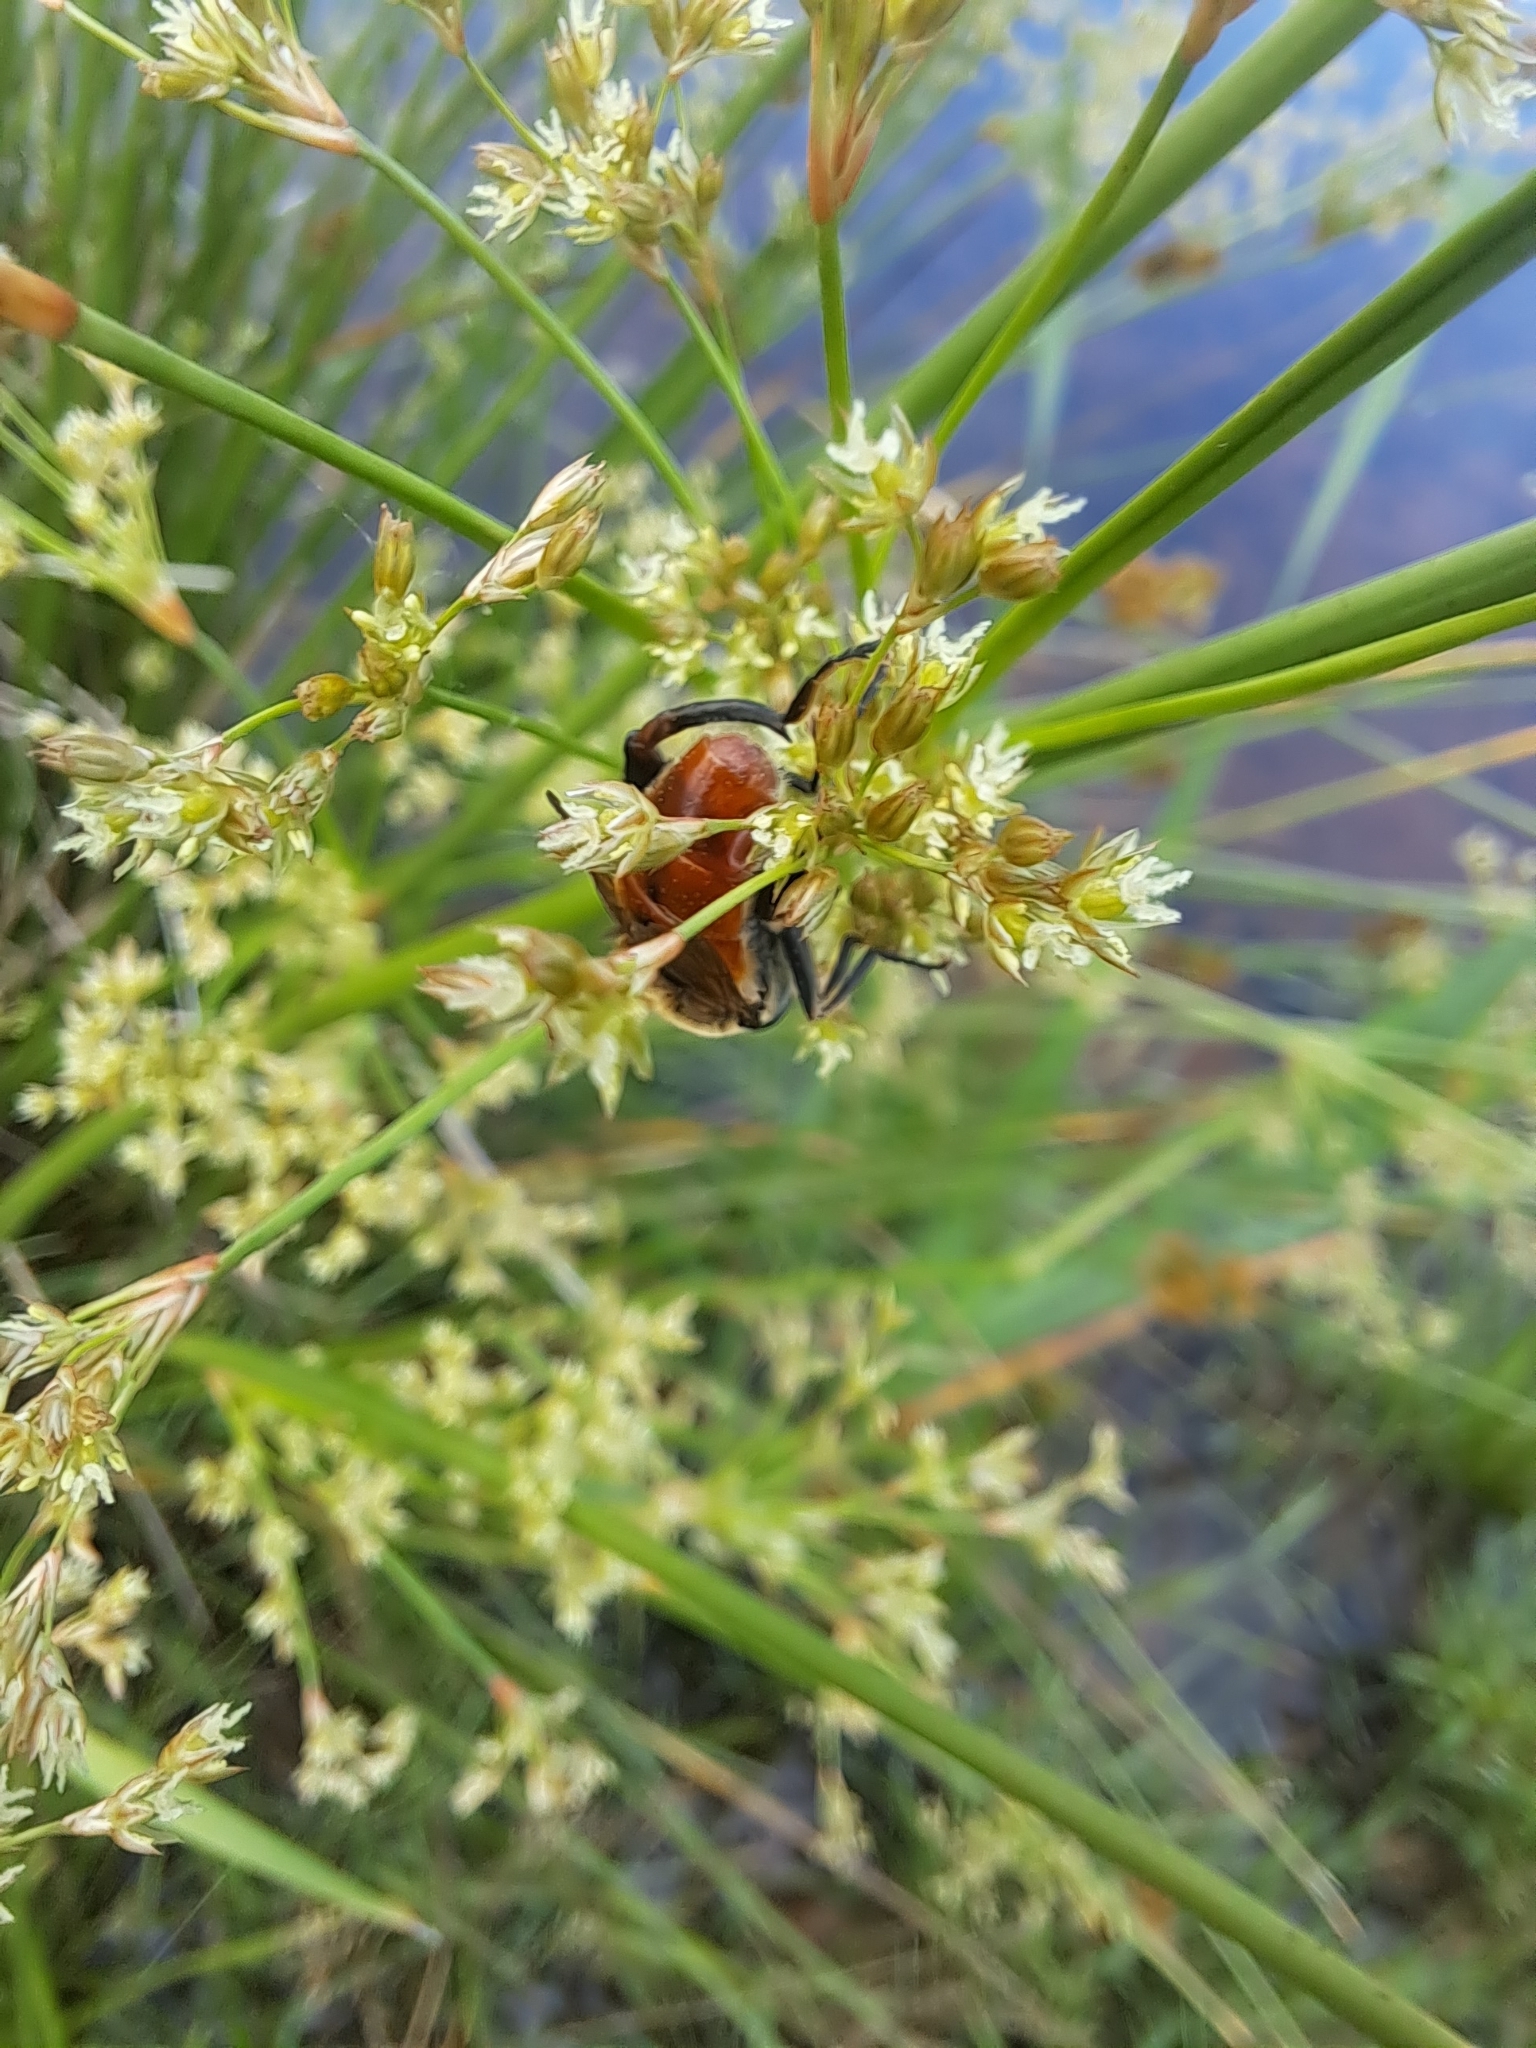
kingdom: Animalia
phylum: Arthropoda
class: Insecta
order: Diptera
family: Syrphidae
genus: Polydontomyia
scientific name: Polydontomyia curvipes
